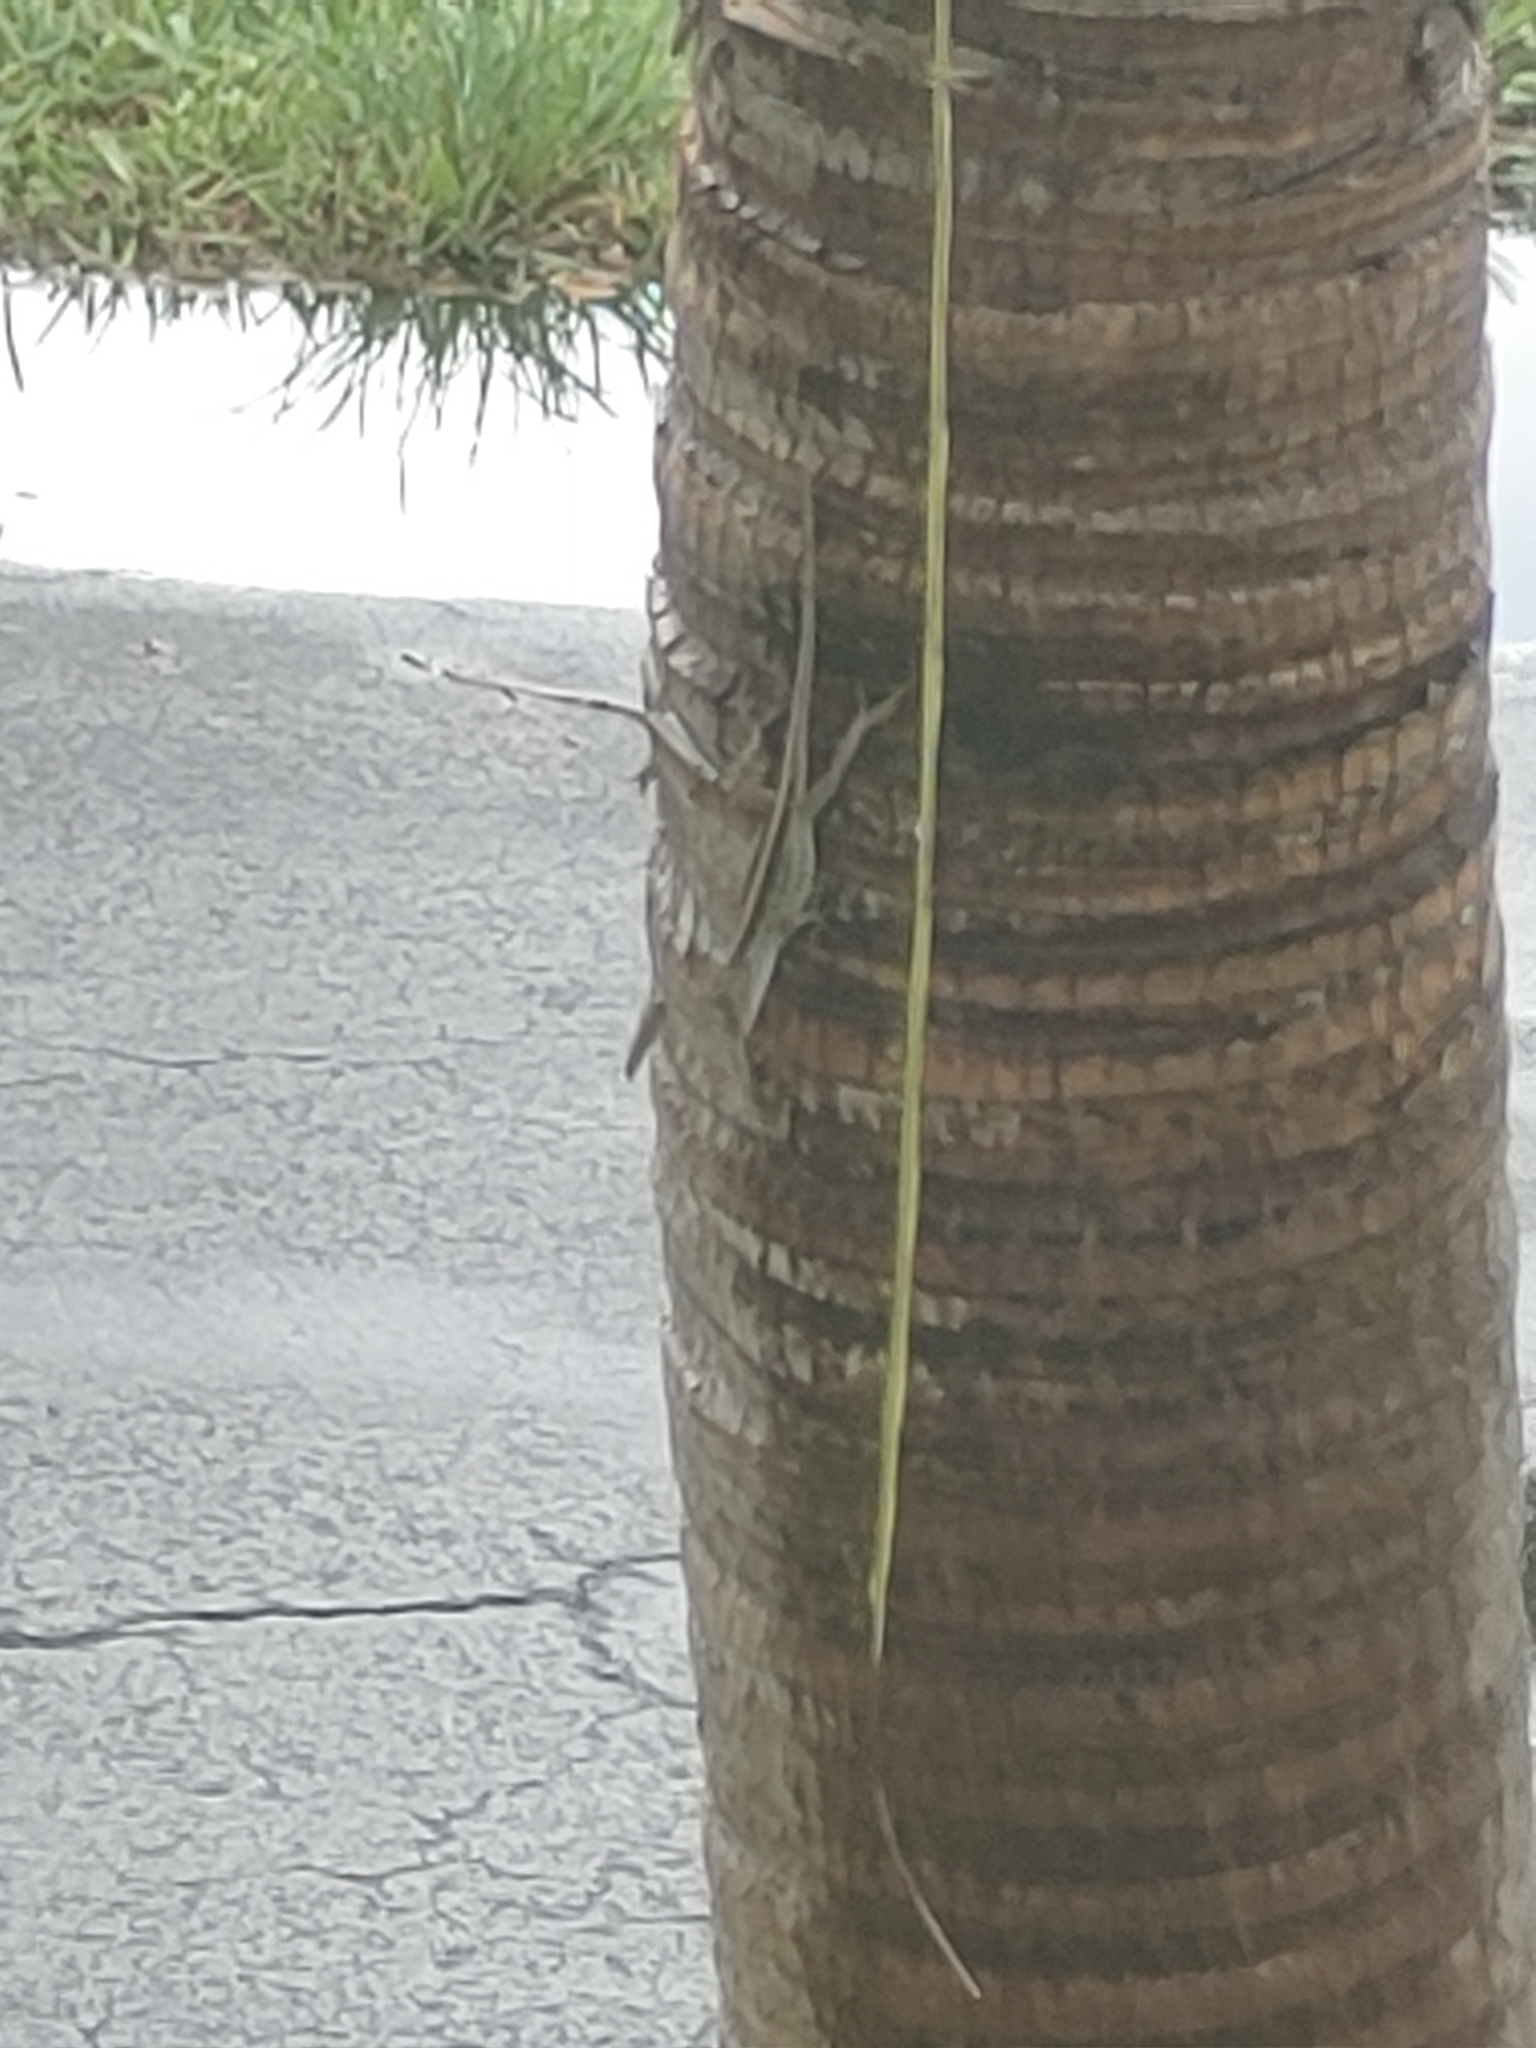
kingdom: Animalia
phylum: Chordata
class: Squamata
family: Dactyloidae
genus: Anolis
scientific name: Anolis sagrei
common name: Brown anole
